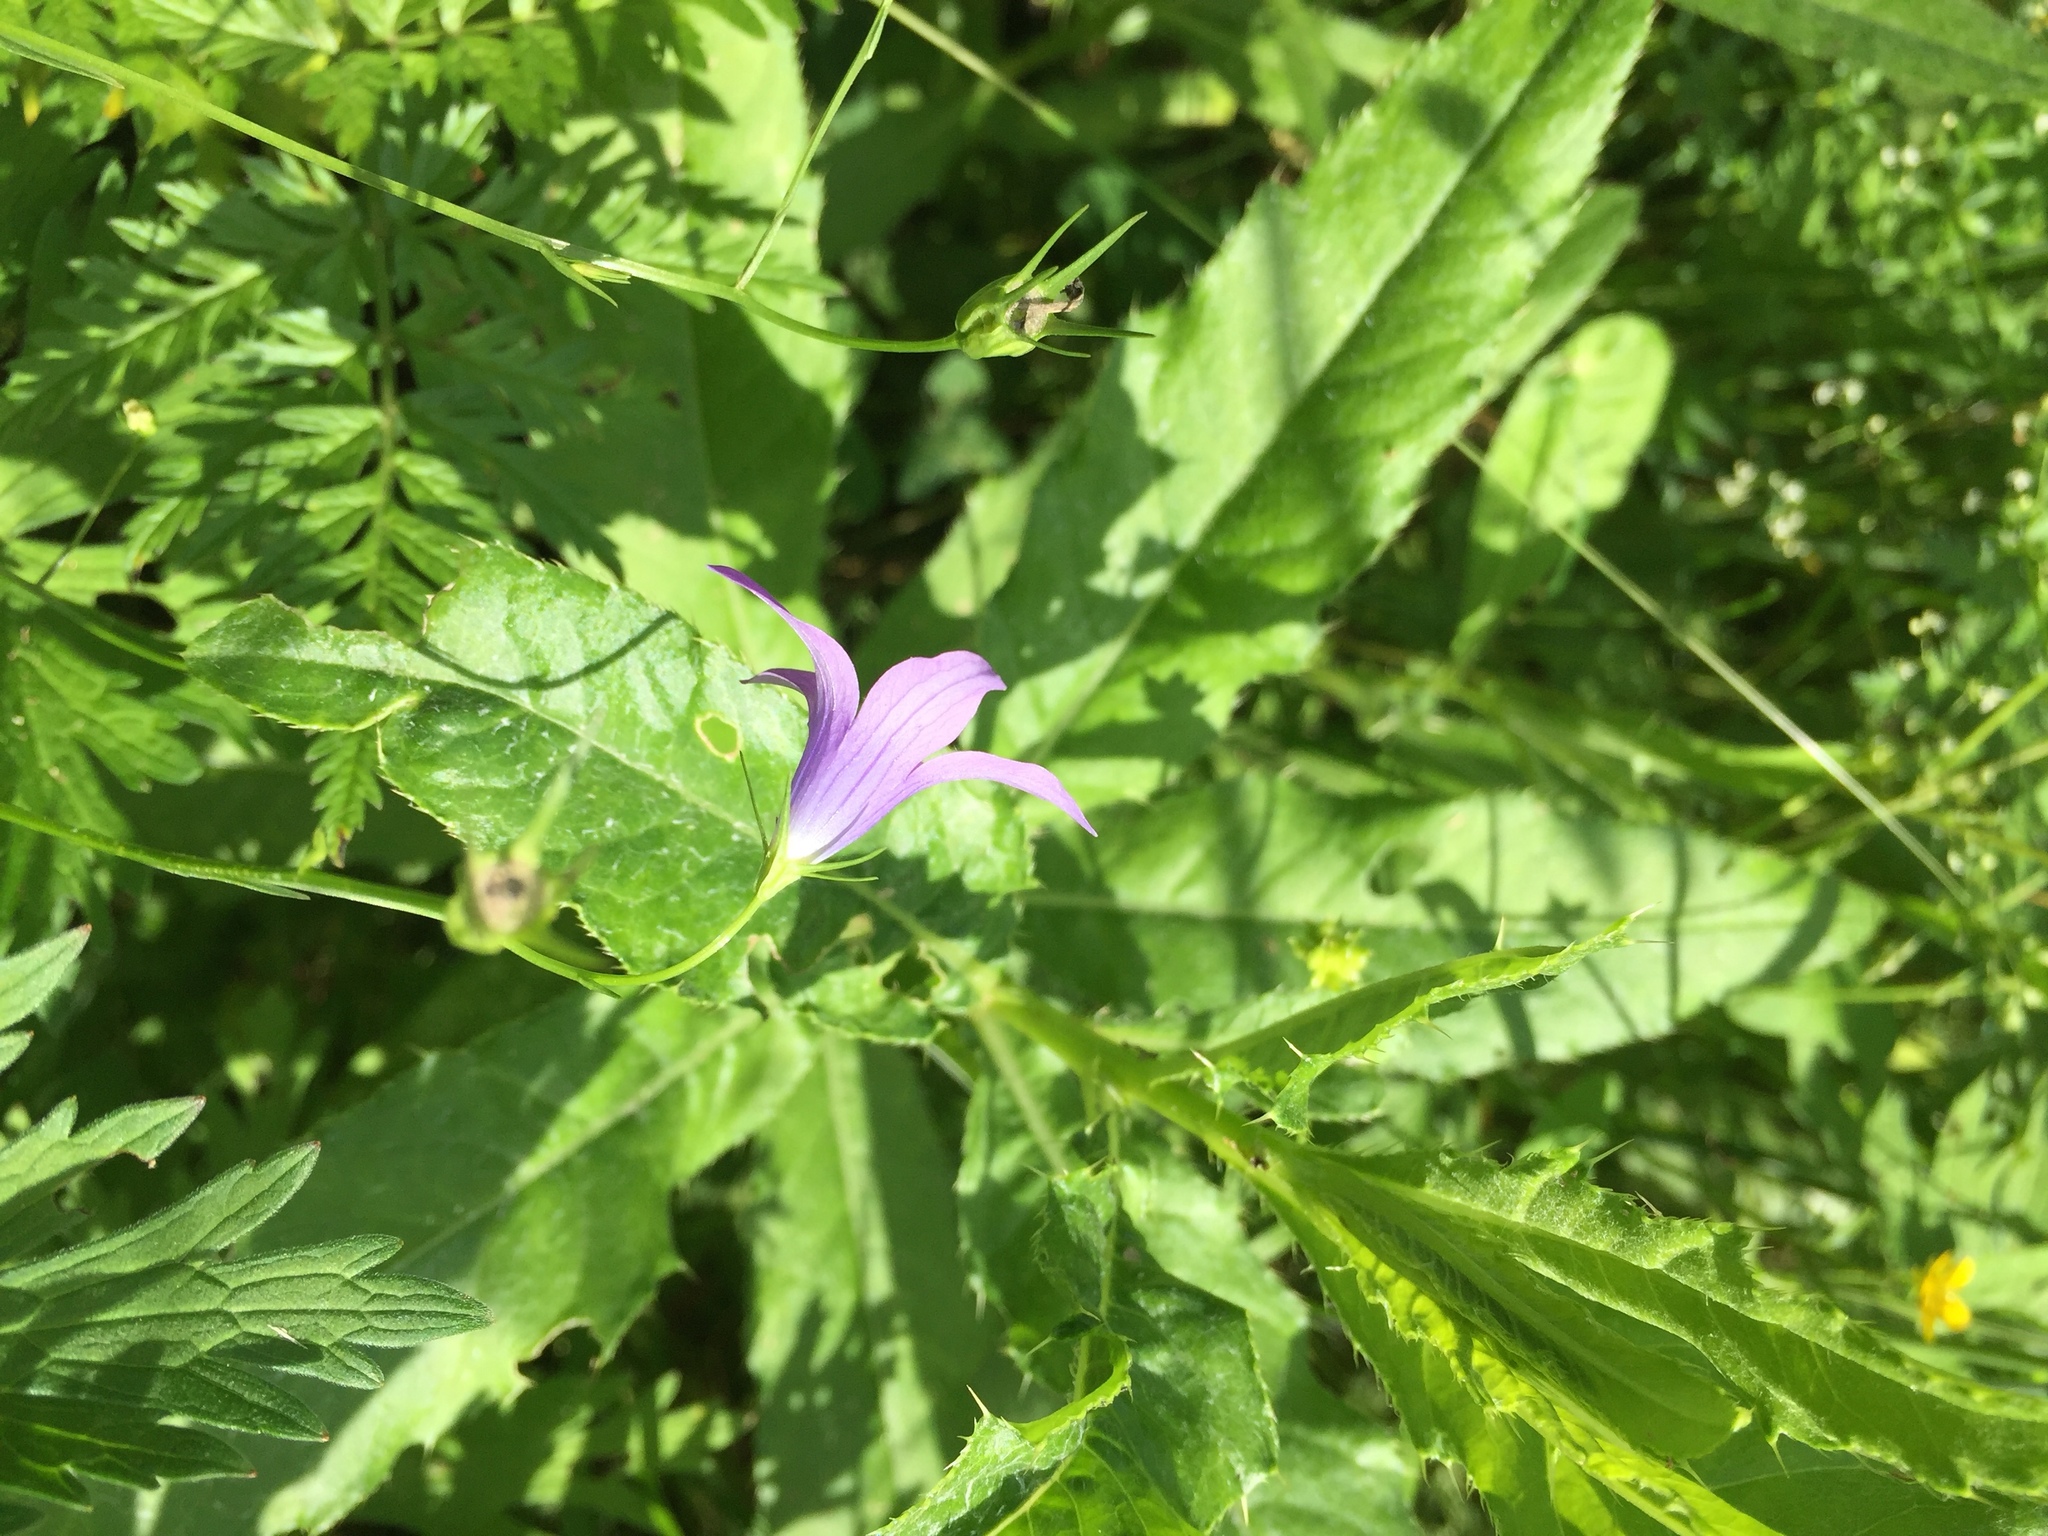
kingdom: Plantae
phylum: Tracheophyta
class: Magnoliopsida
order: Asterales
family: Campanulaceae
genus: Campanula
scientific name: Campanula patula
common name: Spreading bellflower
